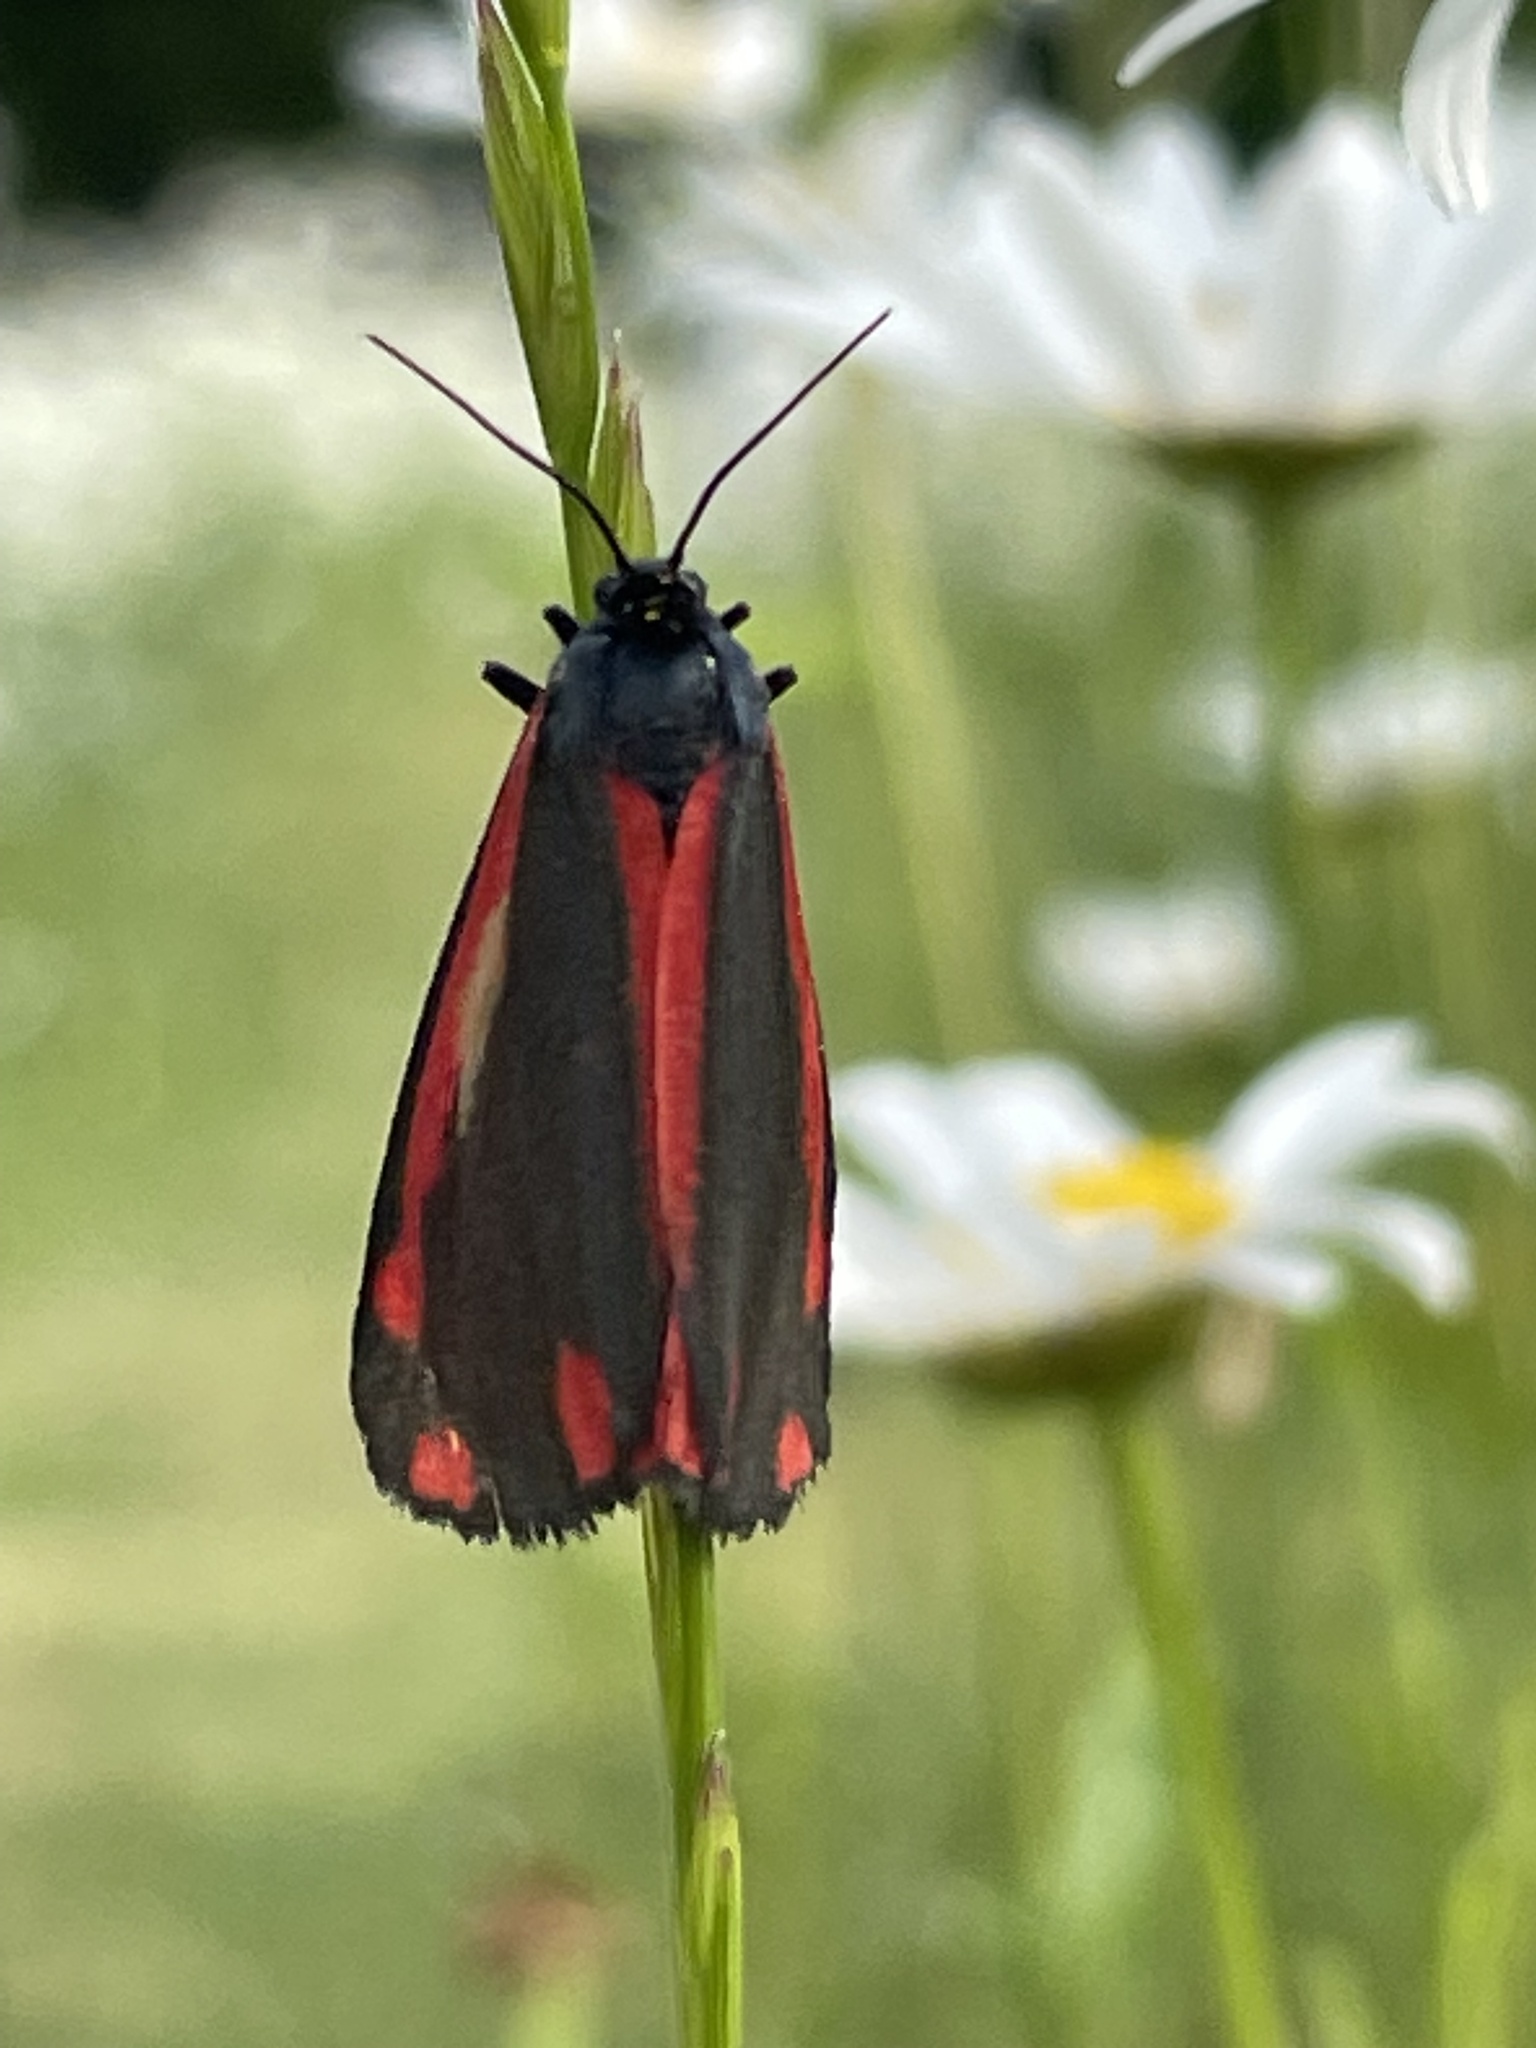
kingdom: Animalia
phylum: Arthropoda
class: Insecta
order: Lepidoptera
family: Erebidae
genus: Tyria
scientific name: Tyria jacobaeae
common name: Cinnabar
